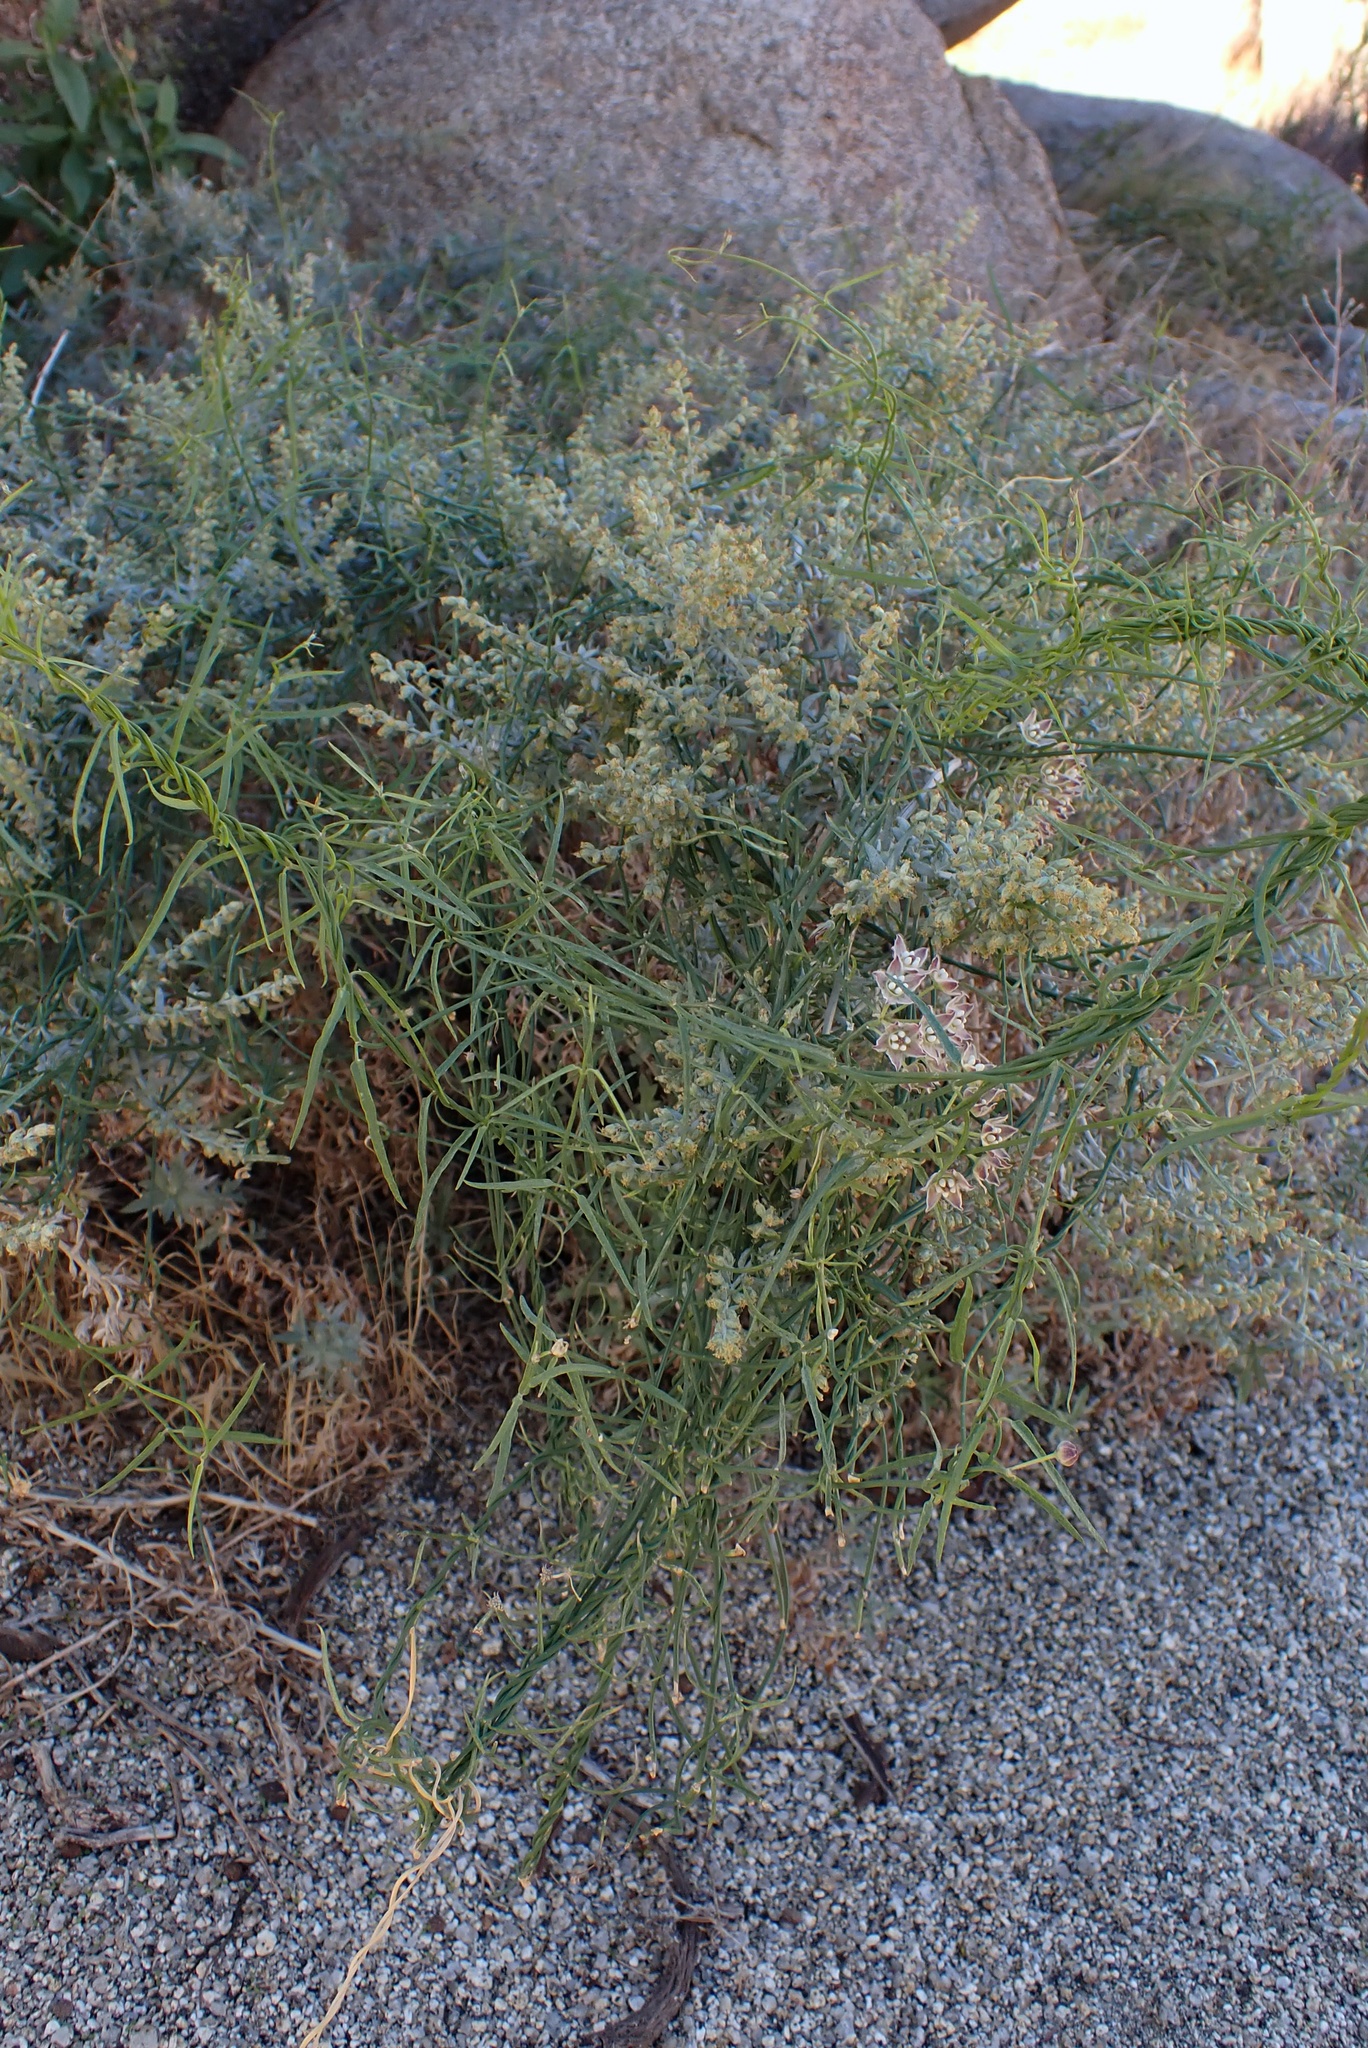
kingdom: Plantae
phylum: Tracheophyta
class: Magnoliopsida
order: Gentianales
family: Apocynaceae
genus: Funastrum
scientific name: Funastrum heterophyllum
